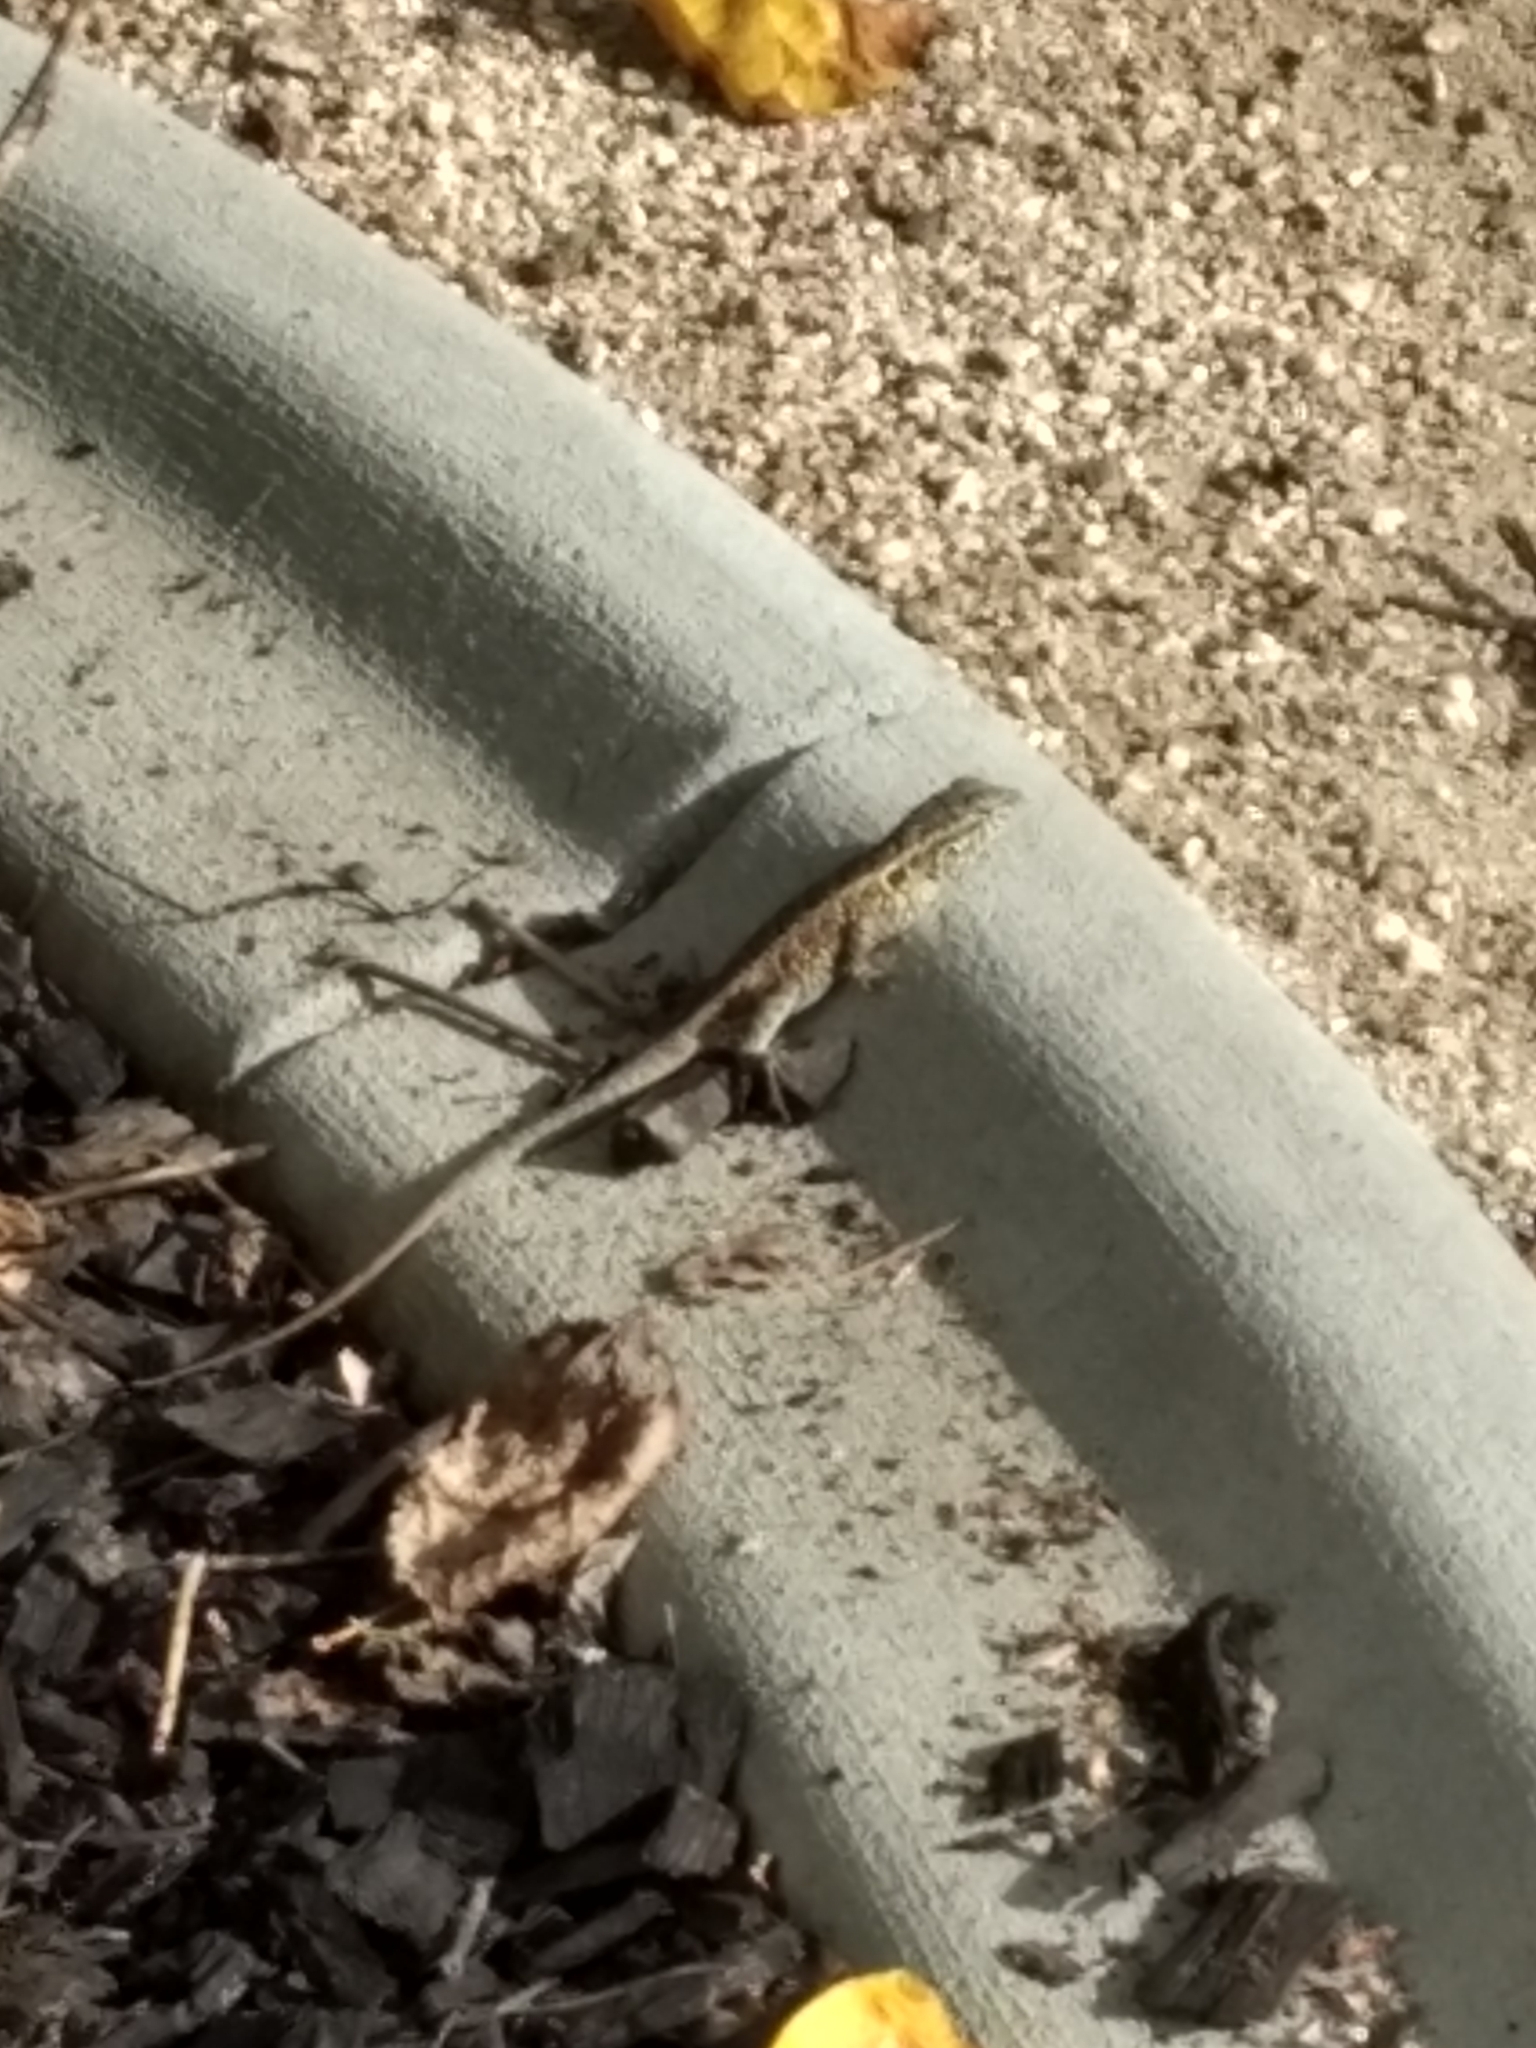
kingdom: Animalia
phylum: Chordata
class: Squamata
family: Phrynosomatidae
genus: Uta
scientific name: Uta stansburiana
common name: Side-blotched lizard
